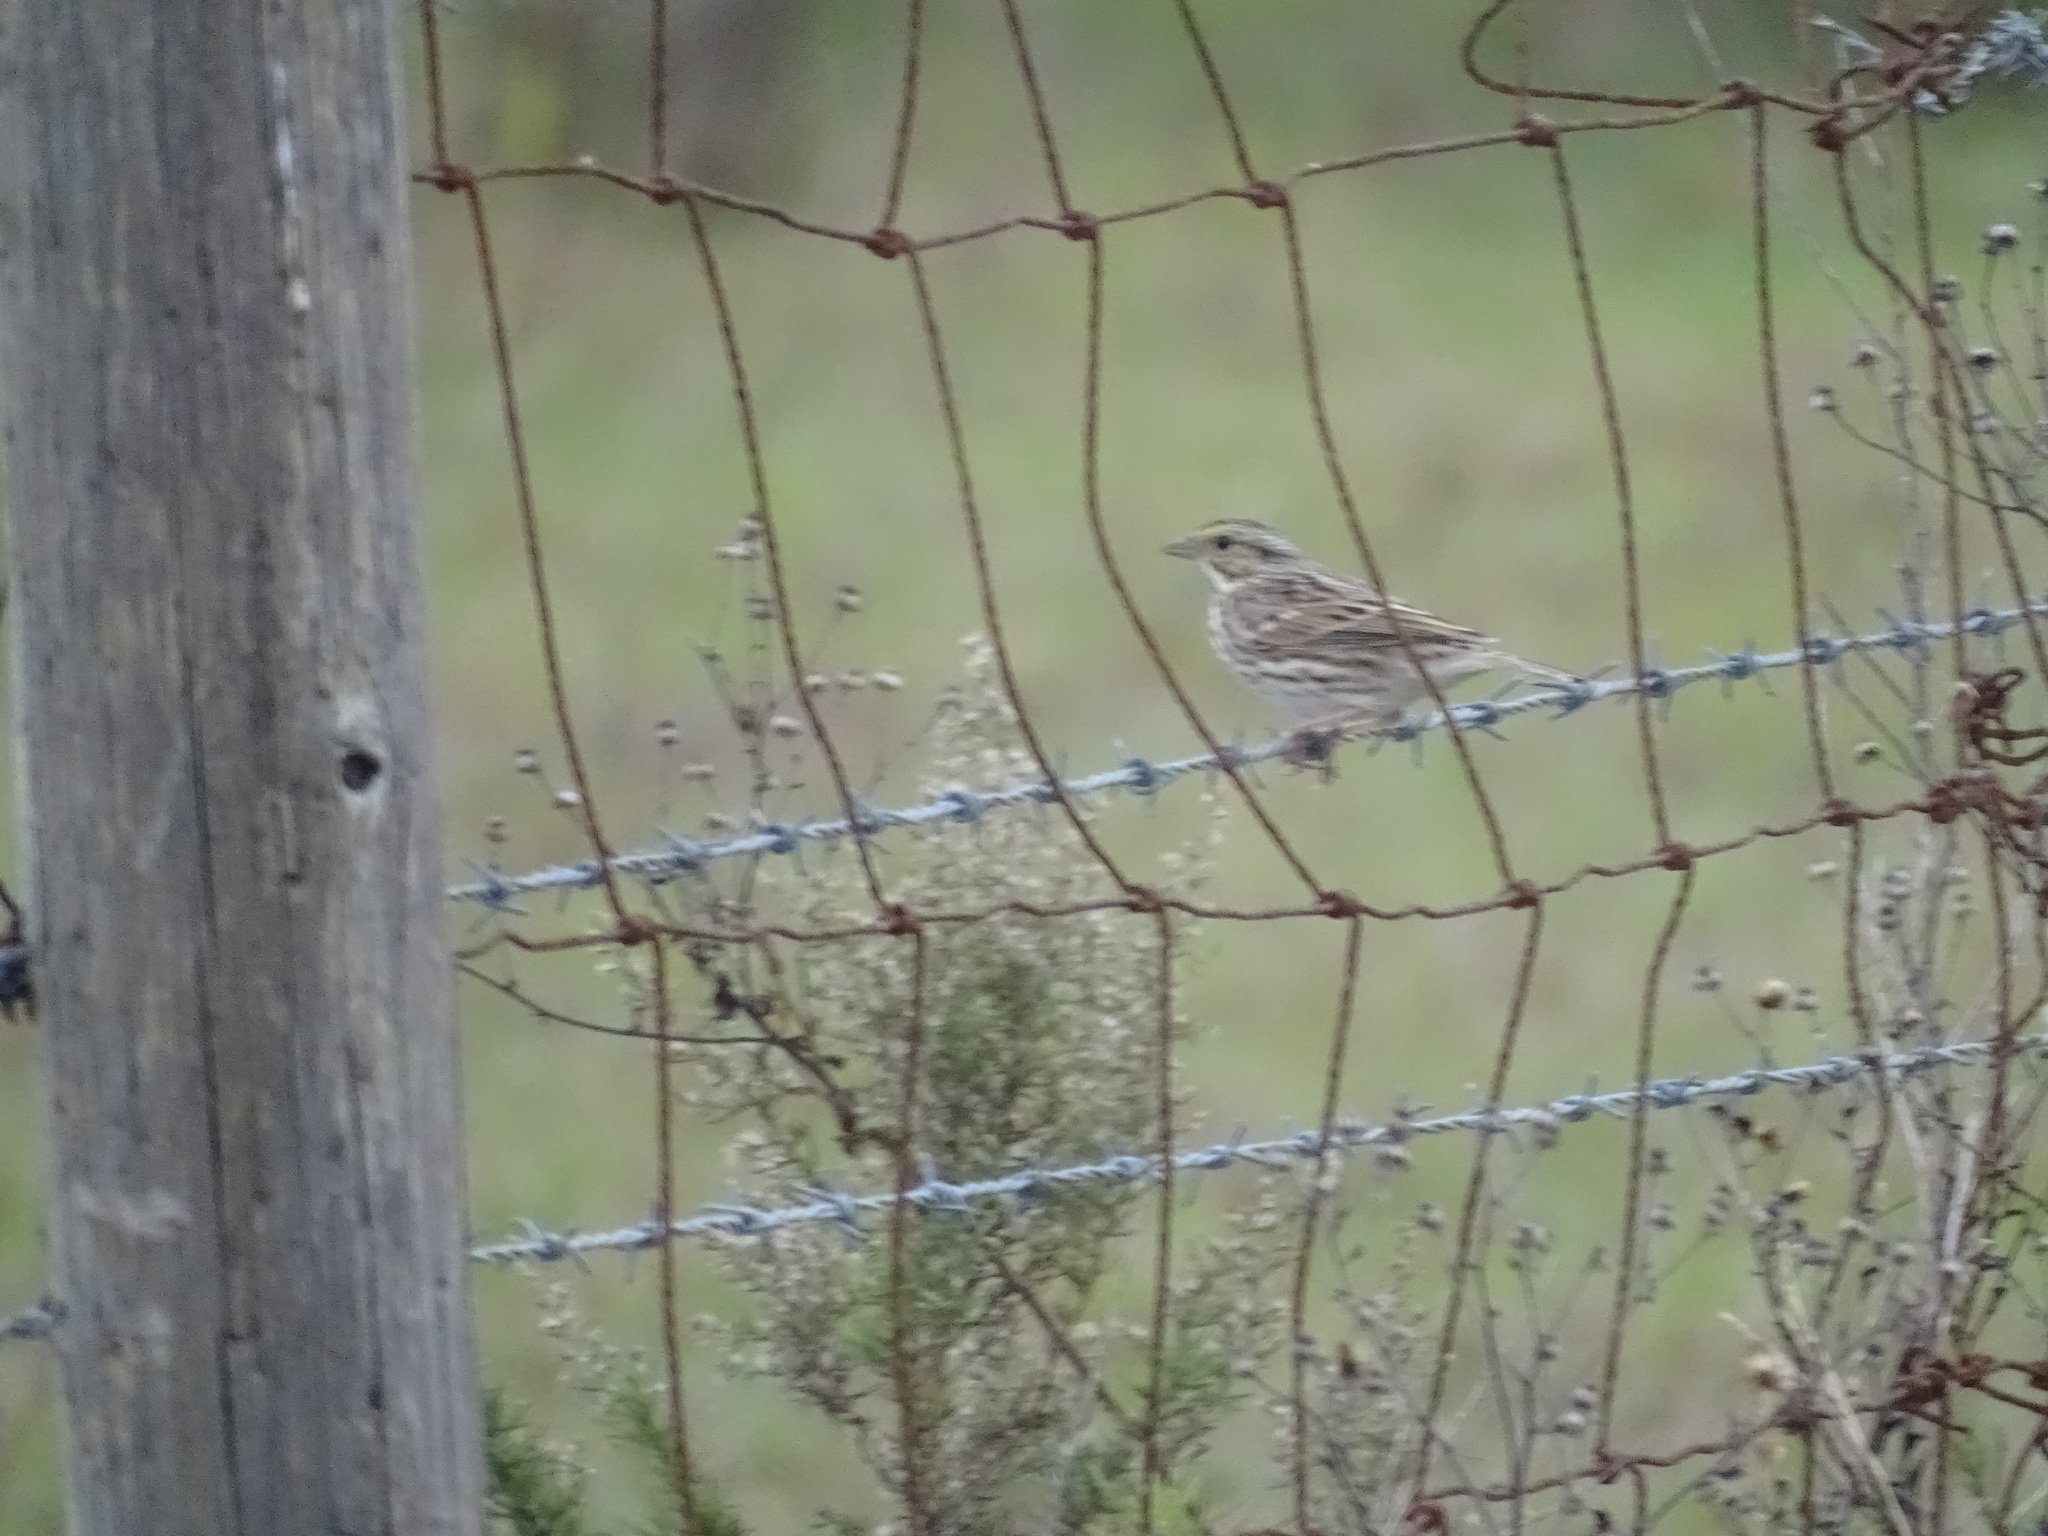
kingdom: Animalia
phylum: Chordata
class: Aves
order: Passeriformes
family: Passerellidae
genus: Passerculus
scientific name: Passerculus sandwichensis
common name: Savannah sparrow
